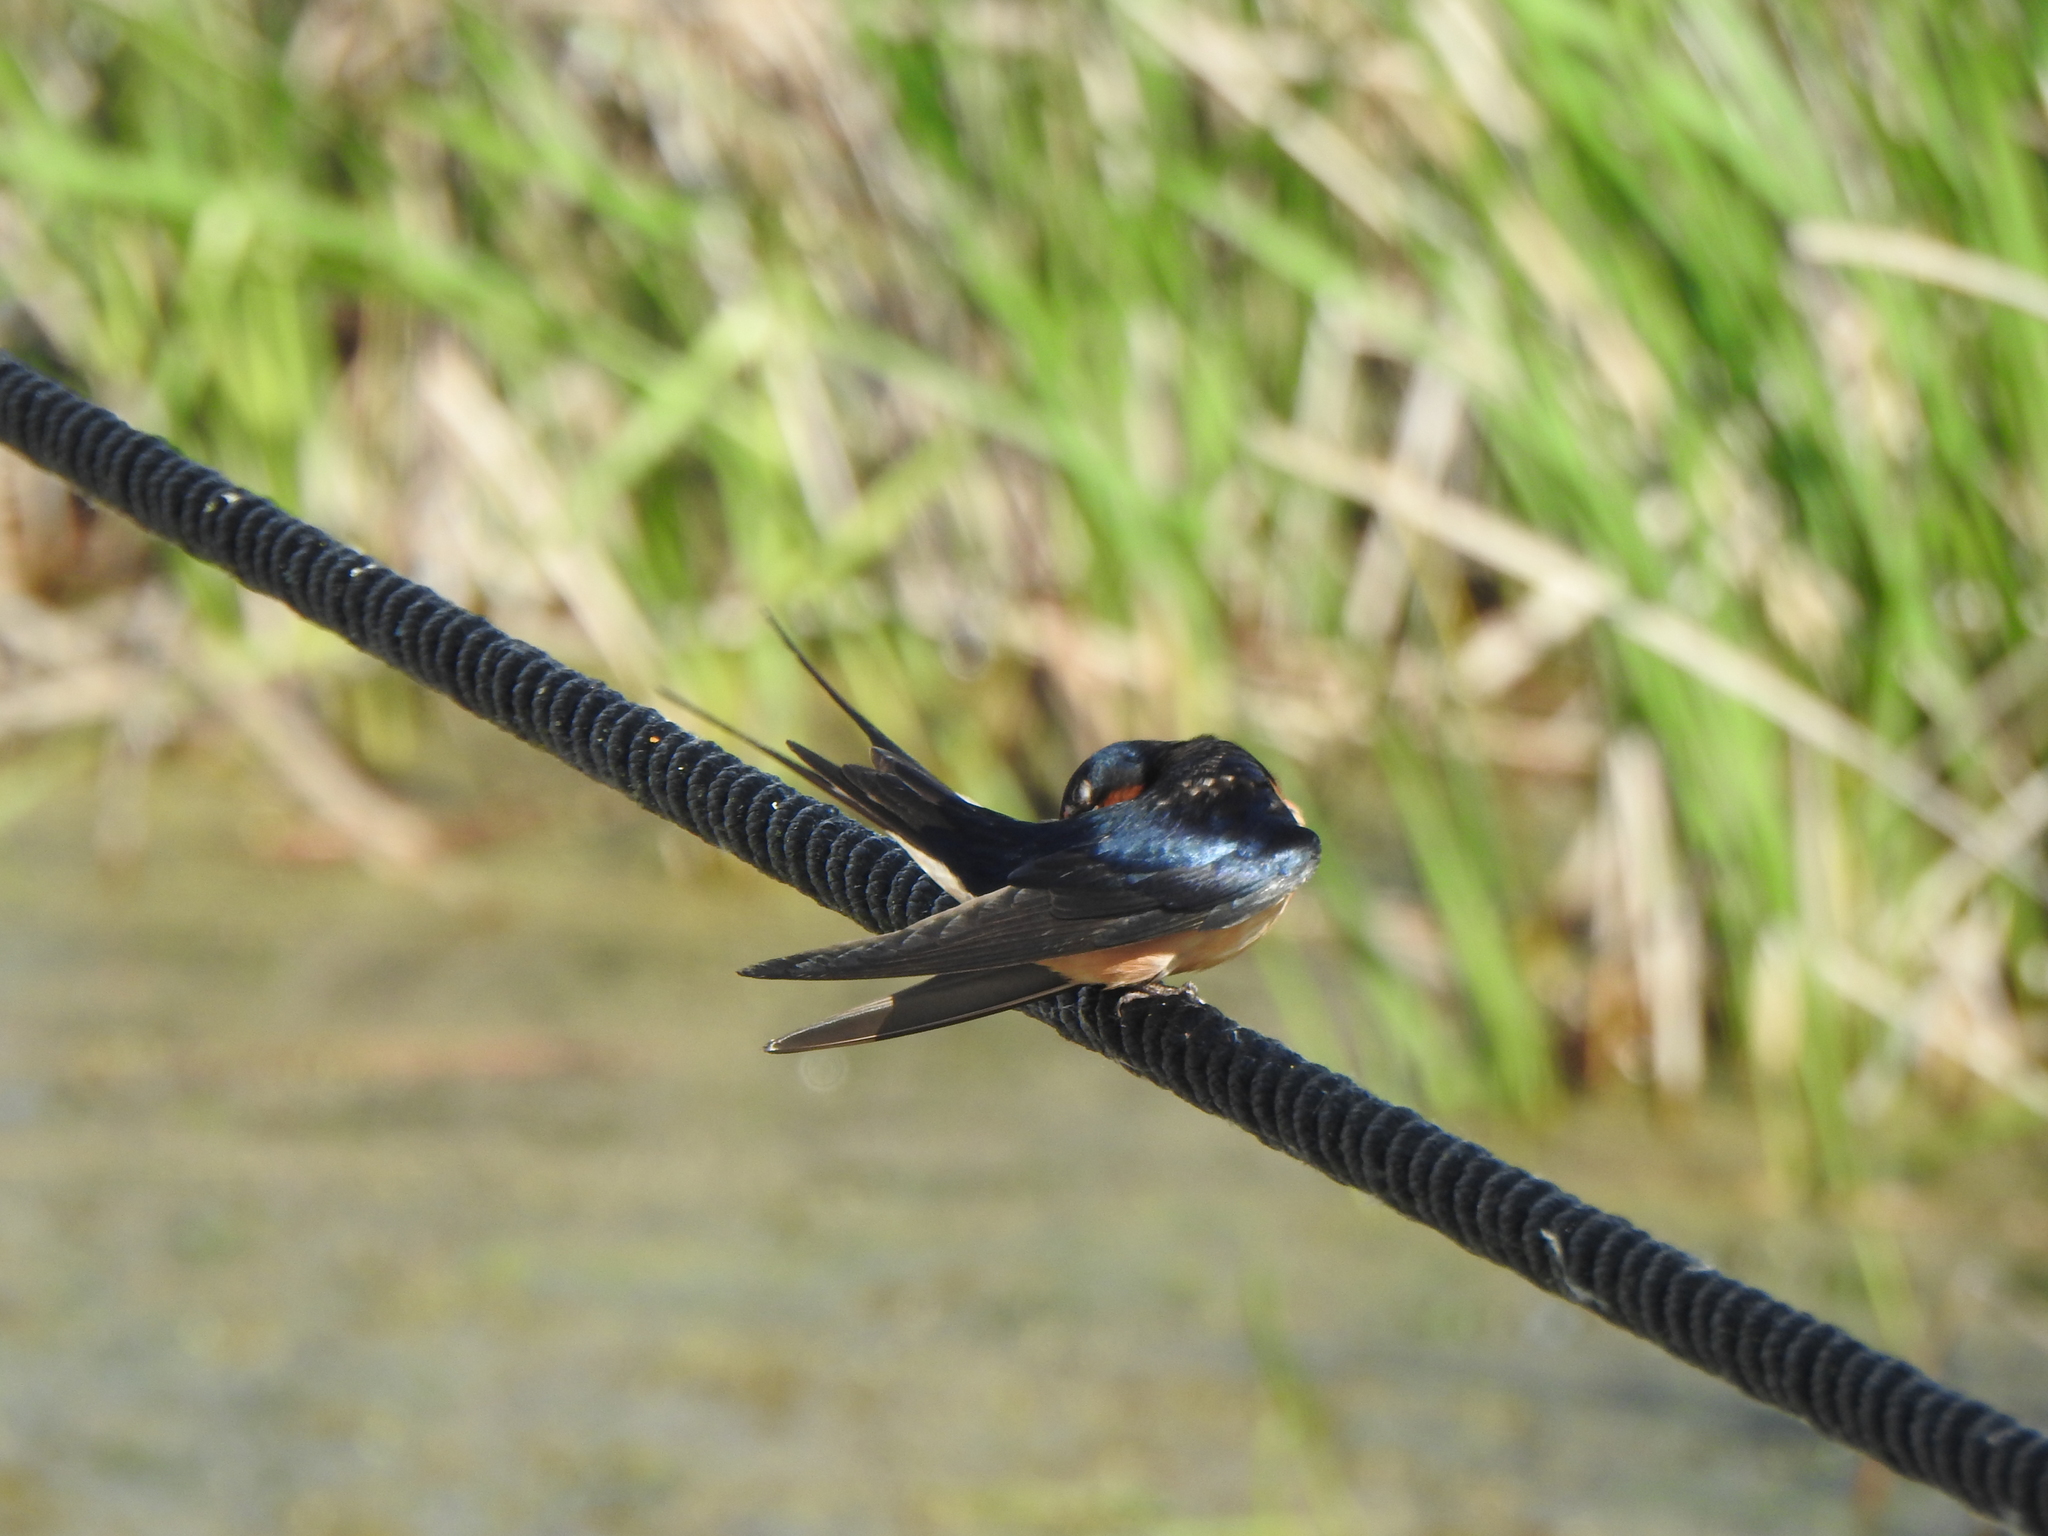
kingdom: Animalia
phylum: Chordata
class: Aves
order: Passeriformes
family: Hirundinidae
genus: Hirundo
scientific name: Hirundo rustica
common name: Barn swallow
